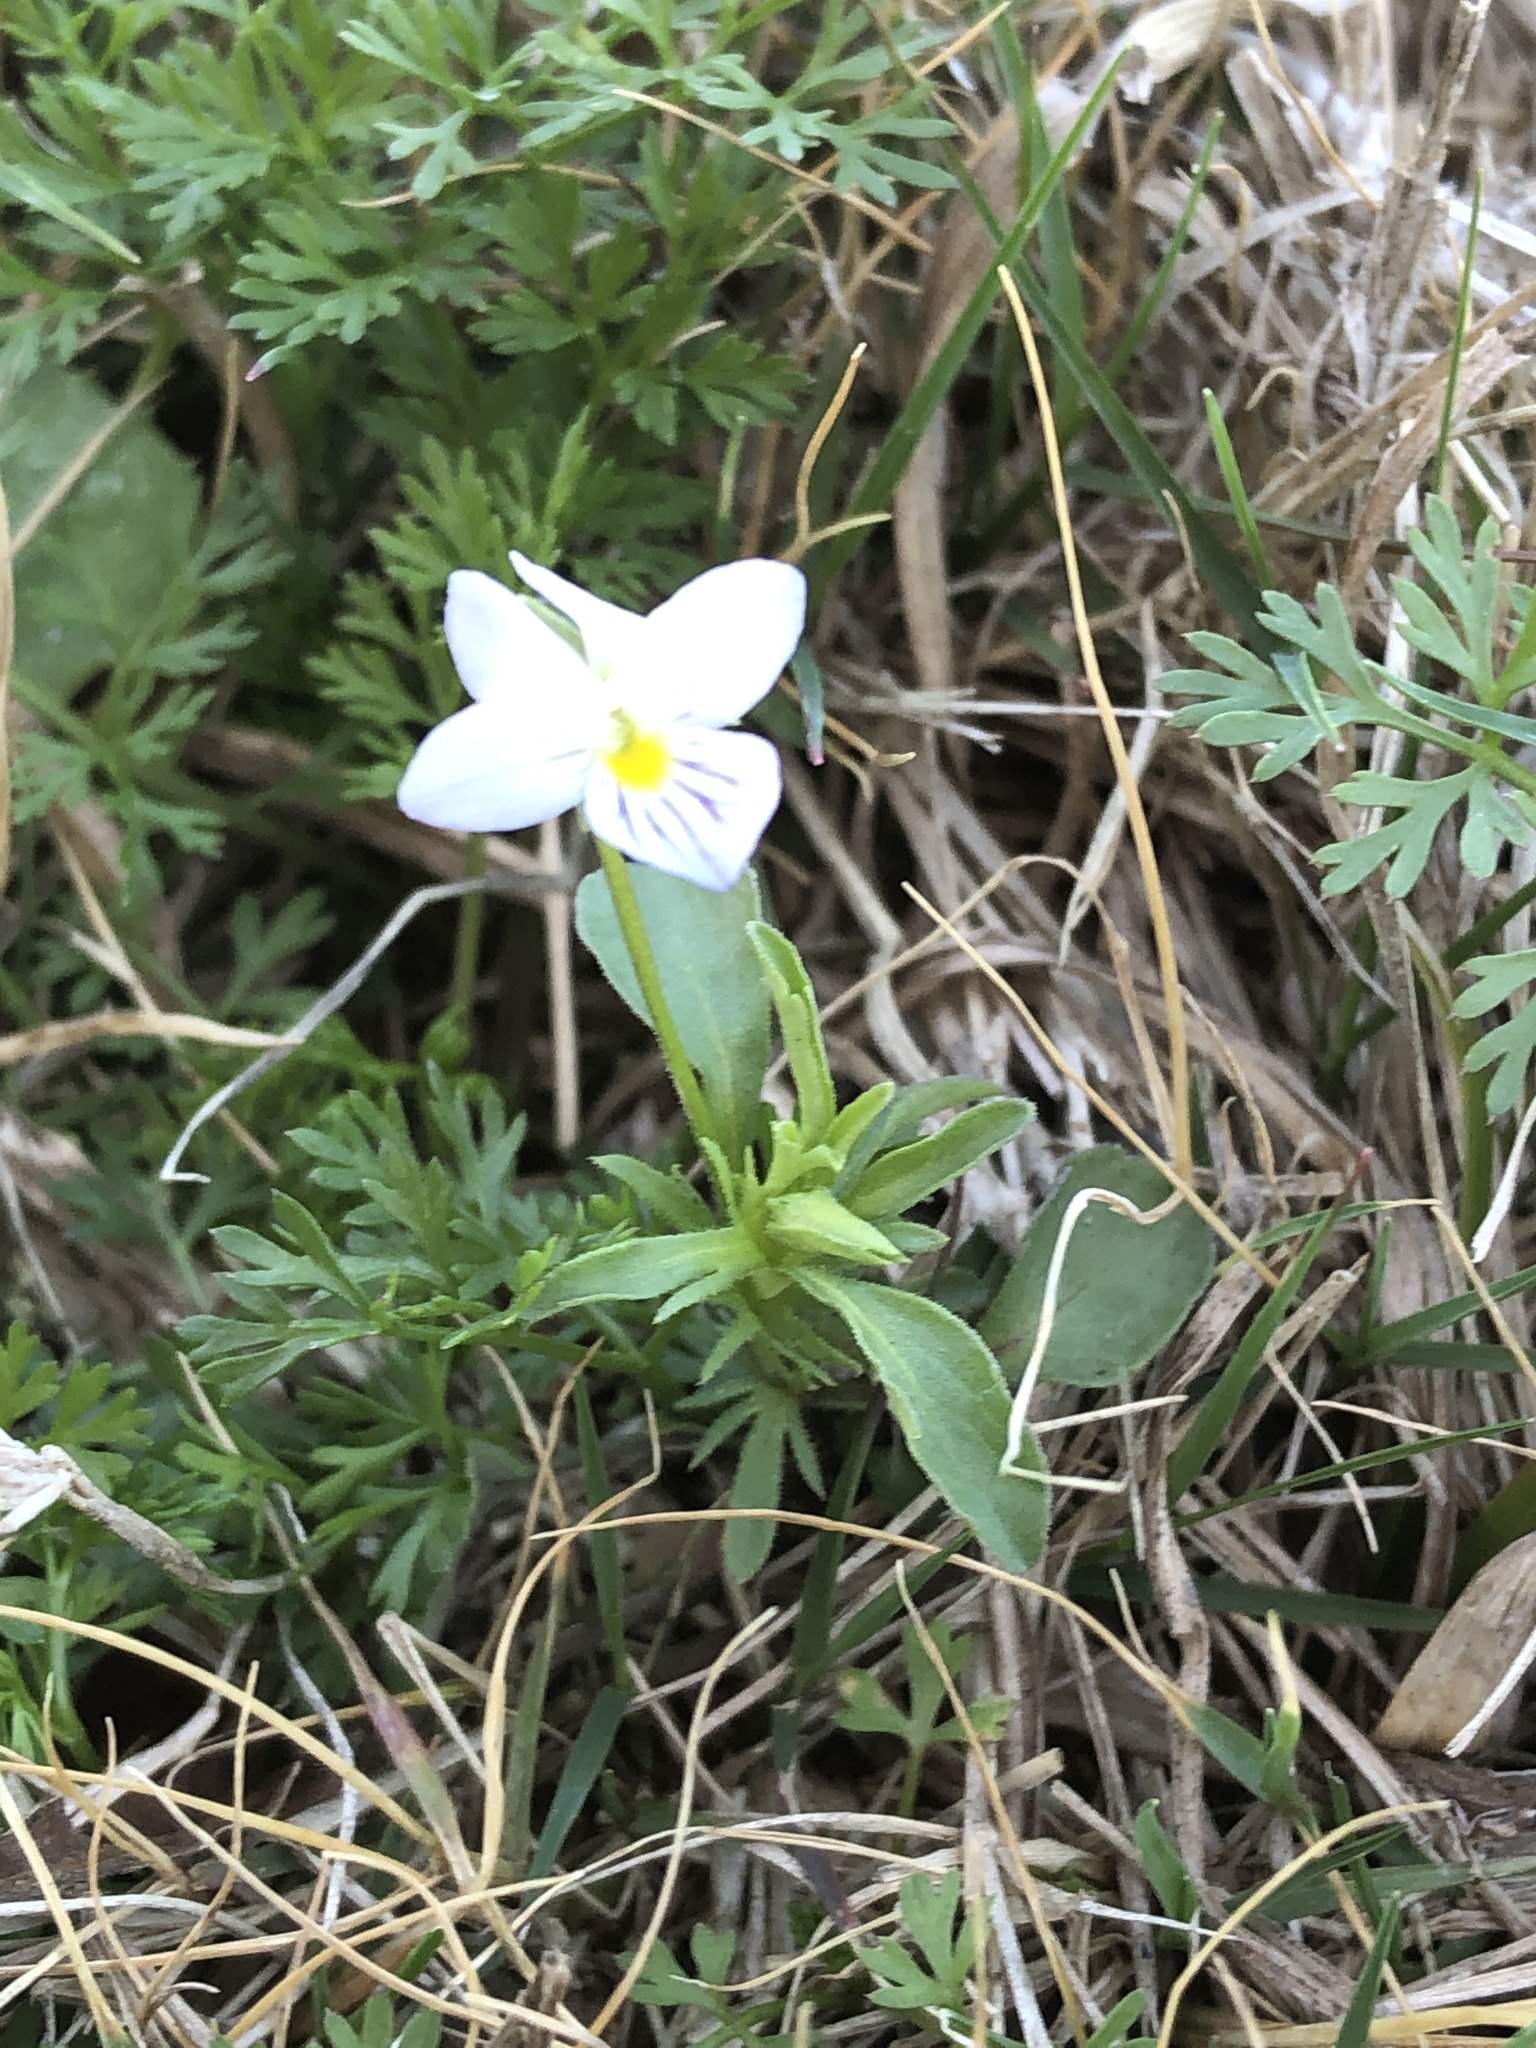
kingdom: Plantae
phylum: Tracheophyta
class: Magnoliopsida
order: Malpighiales
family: Violaceae
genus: Viola
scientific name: Viola rafinesquei
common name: American field pansy
